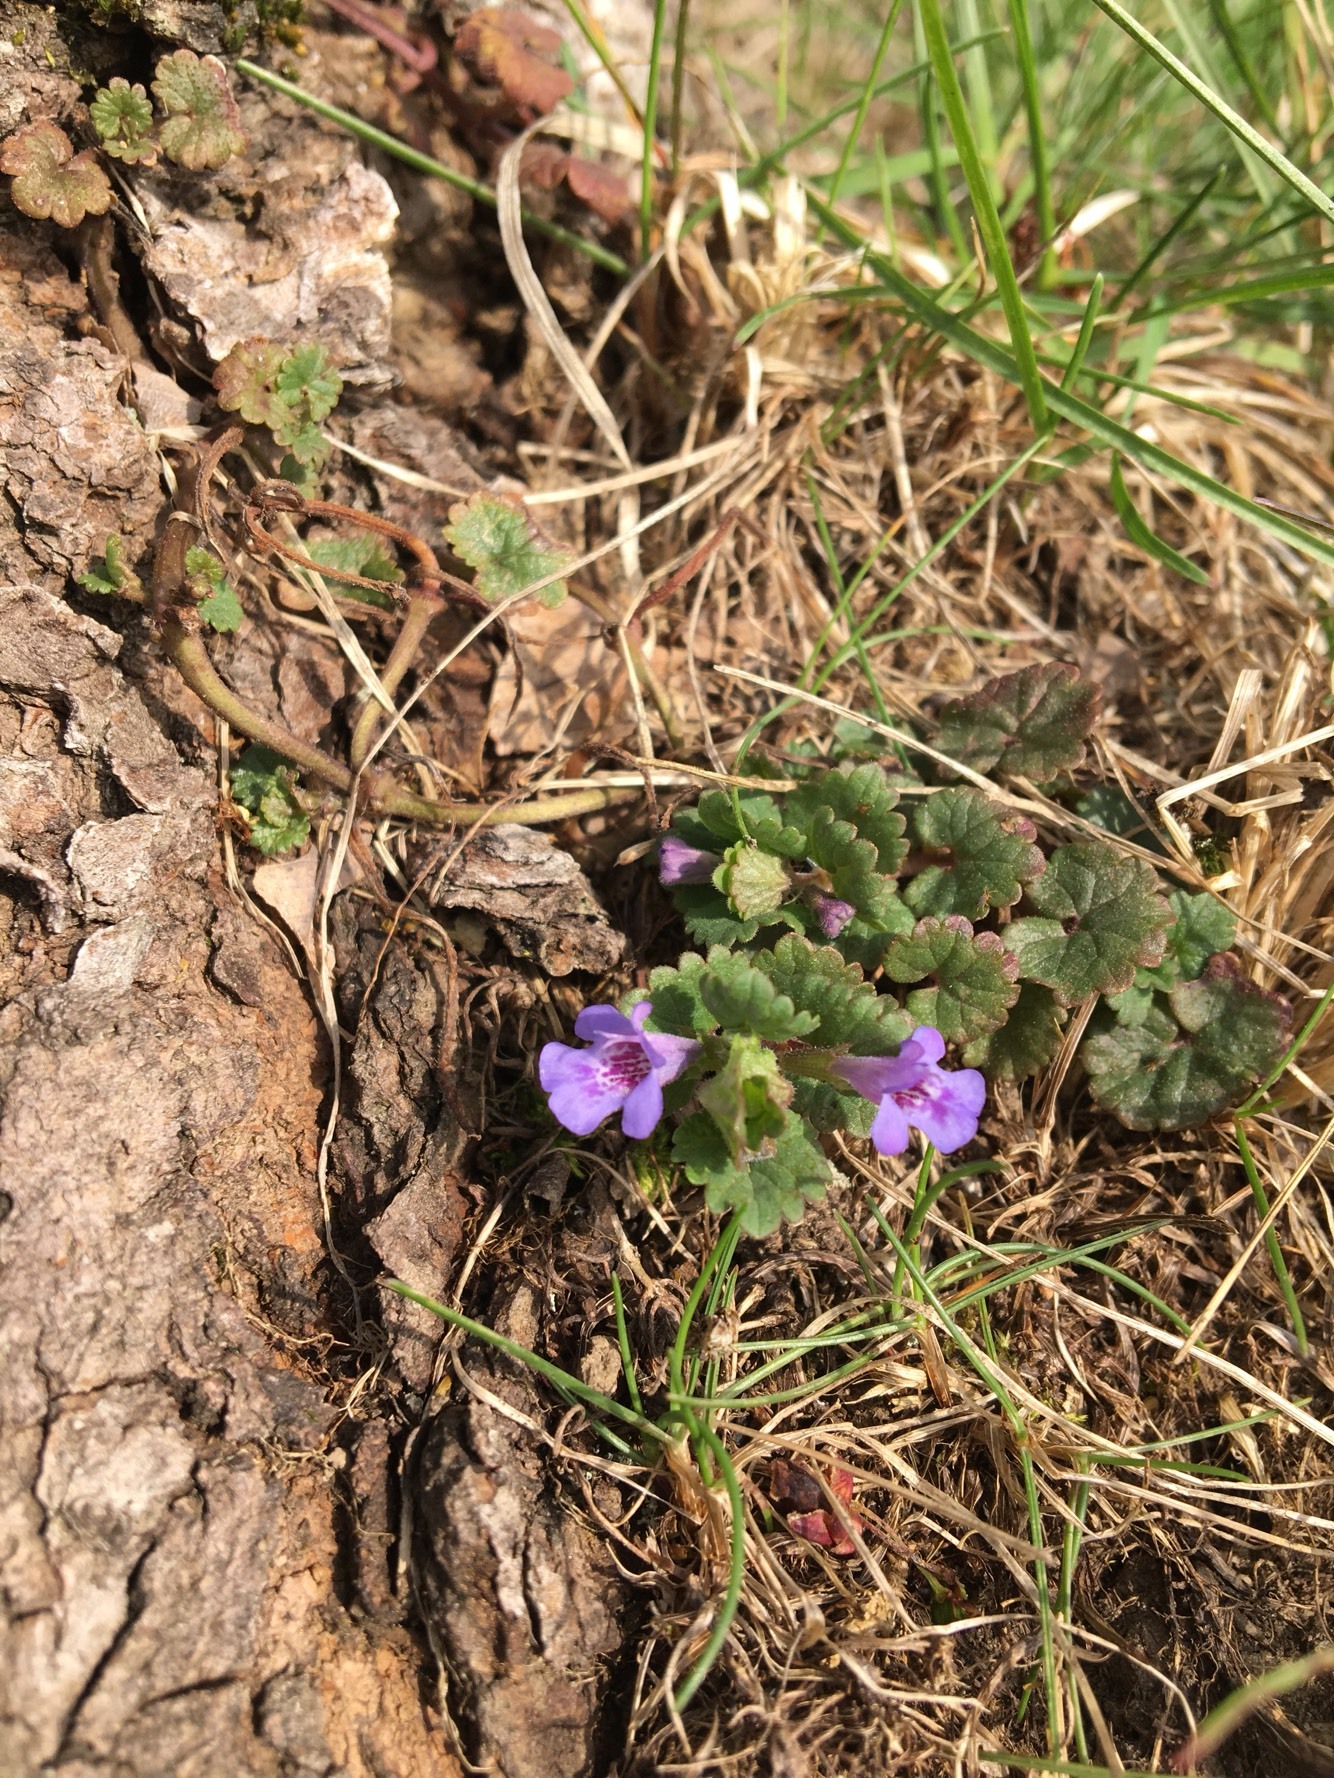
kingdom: Plantae
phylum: Tracheophyta
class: Magnoliopsida
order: Lamiales
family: Lamiaceae
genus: Glechoma
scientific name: Glechoma hederacea
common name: Ground ivy
